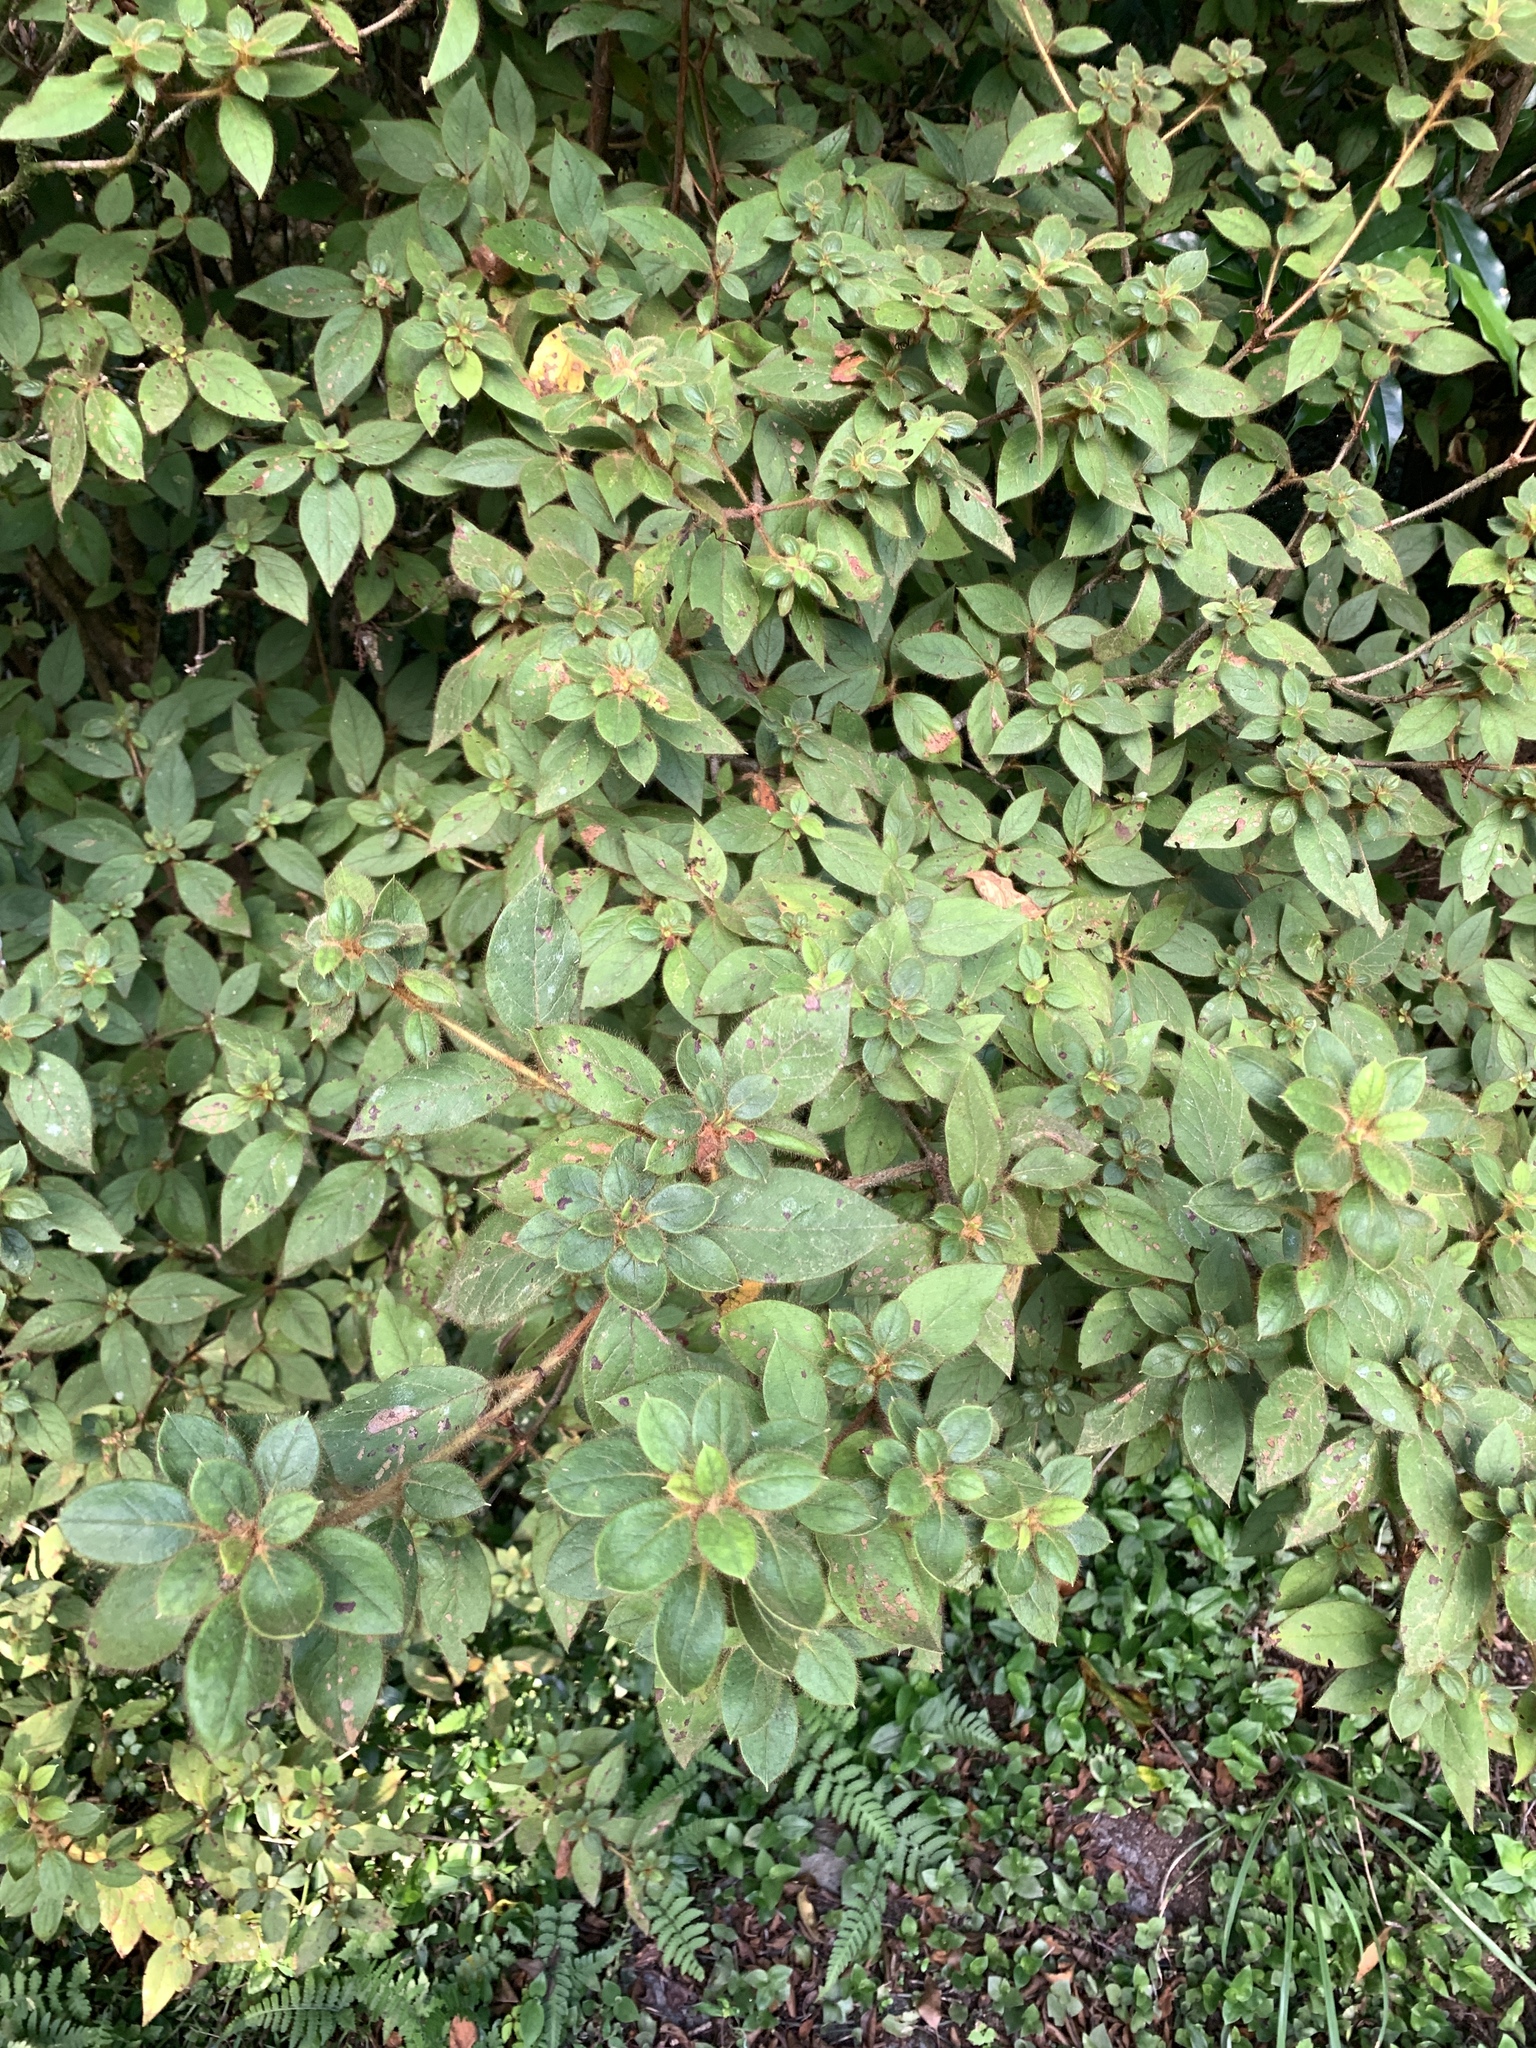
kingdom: Plantae
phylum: Tracheophyta
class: Magnoliopsida
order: Ericales
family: Ericaceae
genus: Rhododendron
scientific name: Rhododendron oldhamii
